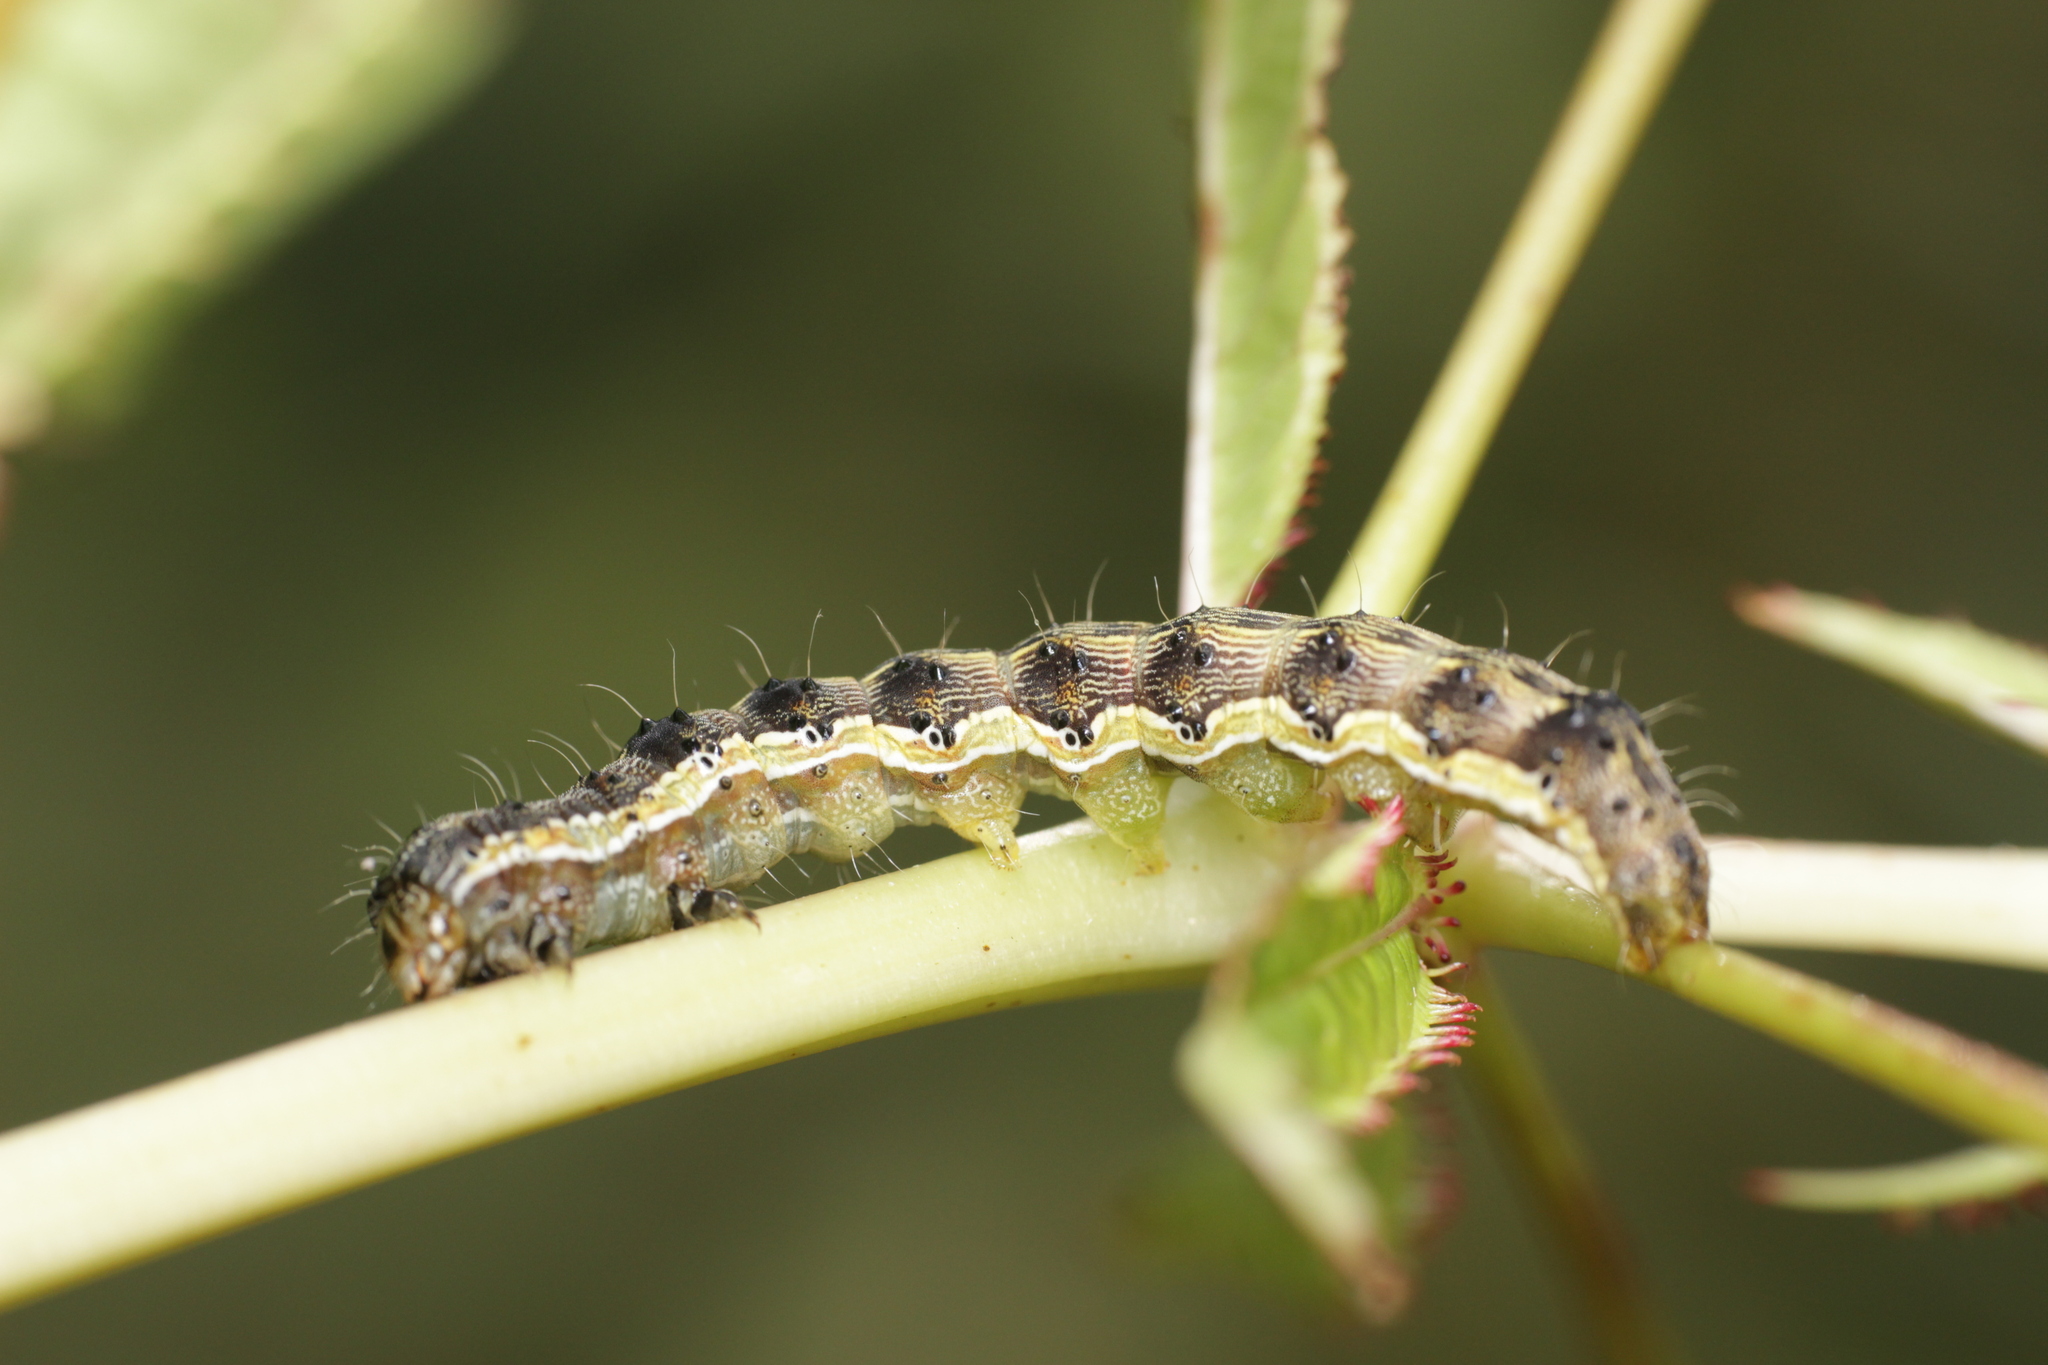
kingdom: Animalia
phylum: Arthropoda
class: Insecta
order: Lepidoptera
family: Noctuidae
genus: Helicoverpa
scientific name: Helicoverpa armigera
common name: Cotton bollworm
